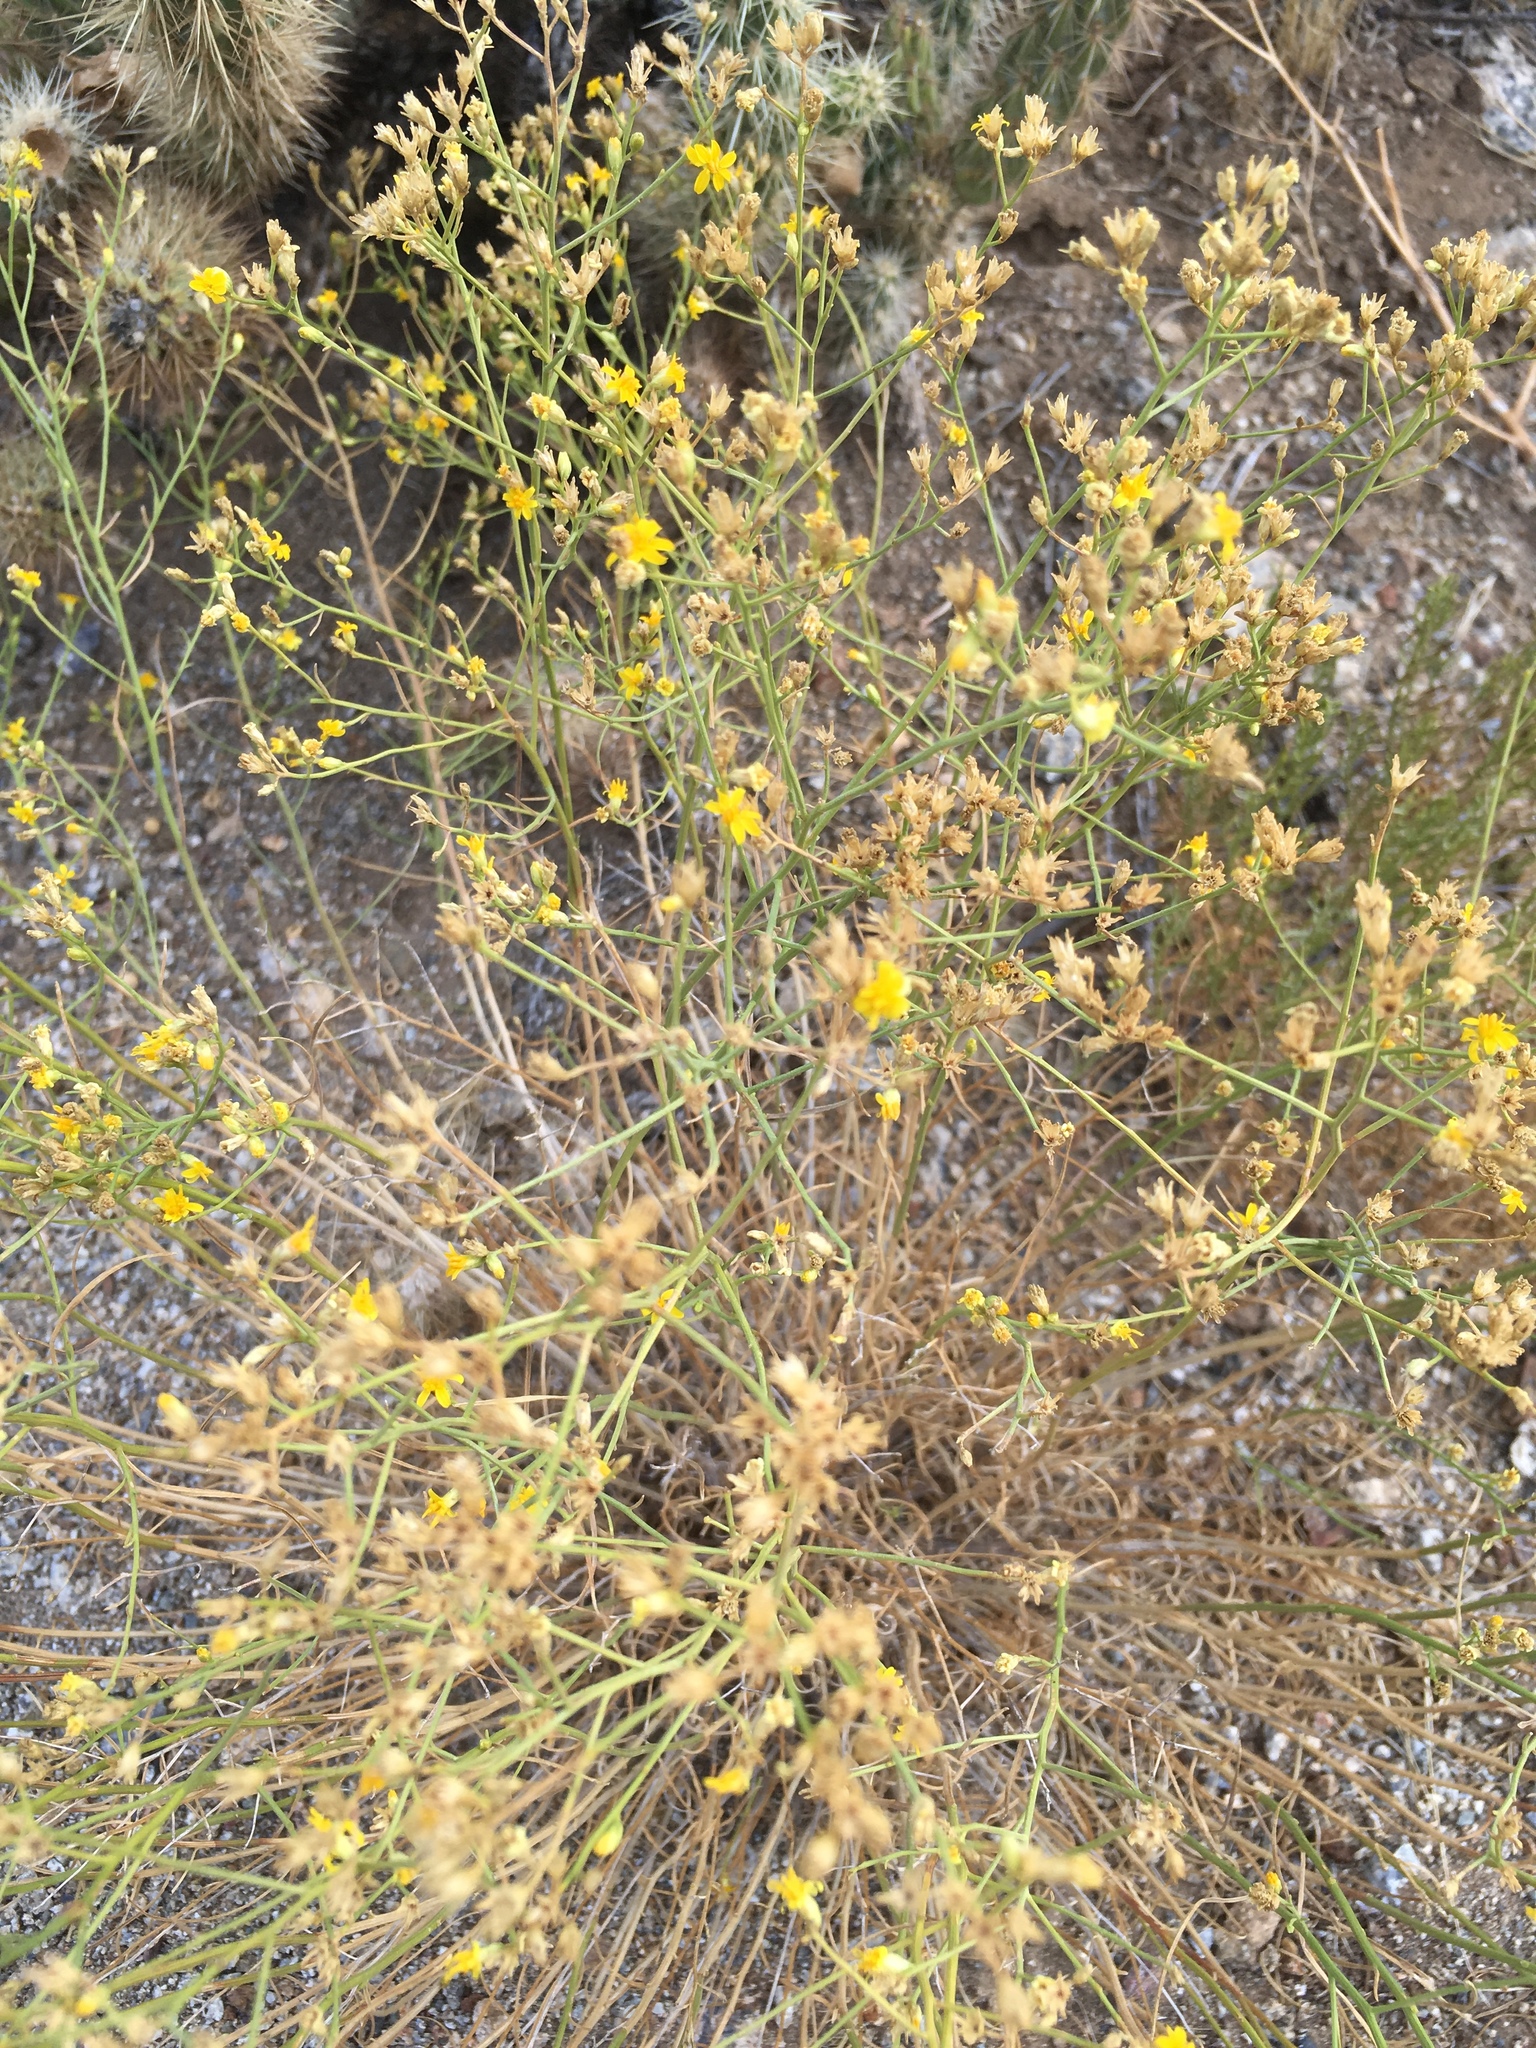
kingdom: Plantae
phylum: Tracheophyta
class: Magnoliopsida
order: Asterales
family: Asteraceae
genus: Gutierrezia
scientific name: Gutierrezia sarothrae
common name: Broom snakeweed
